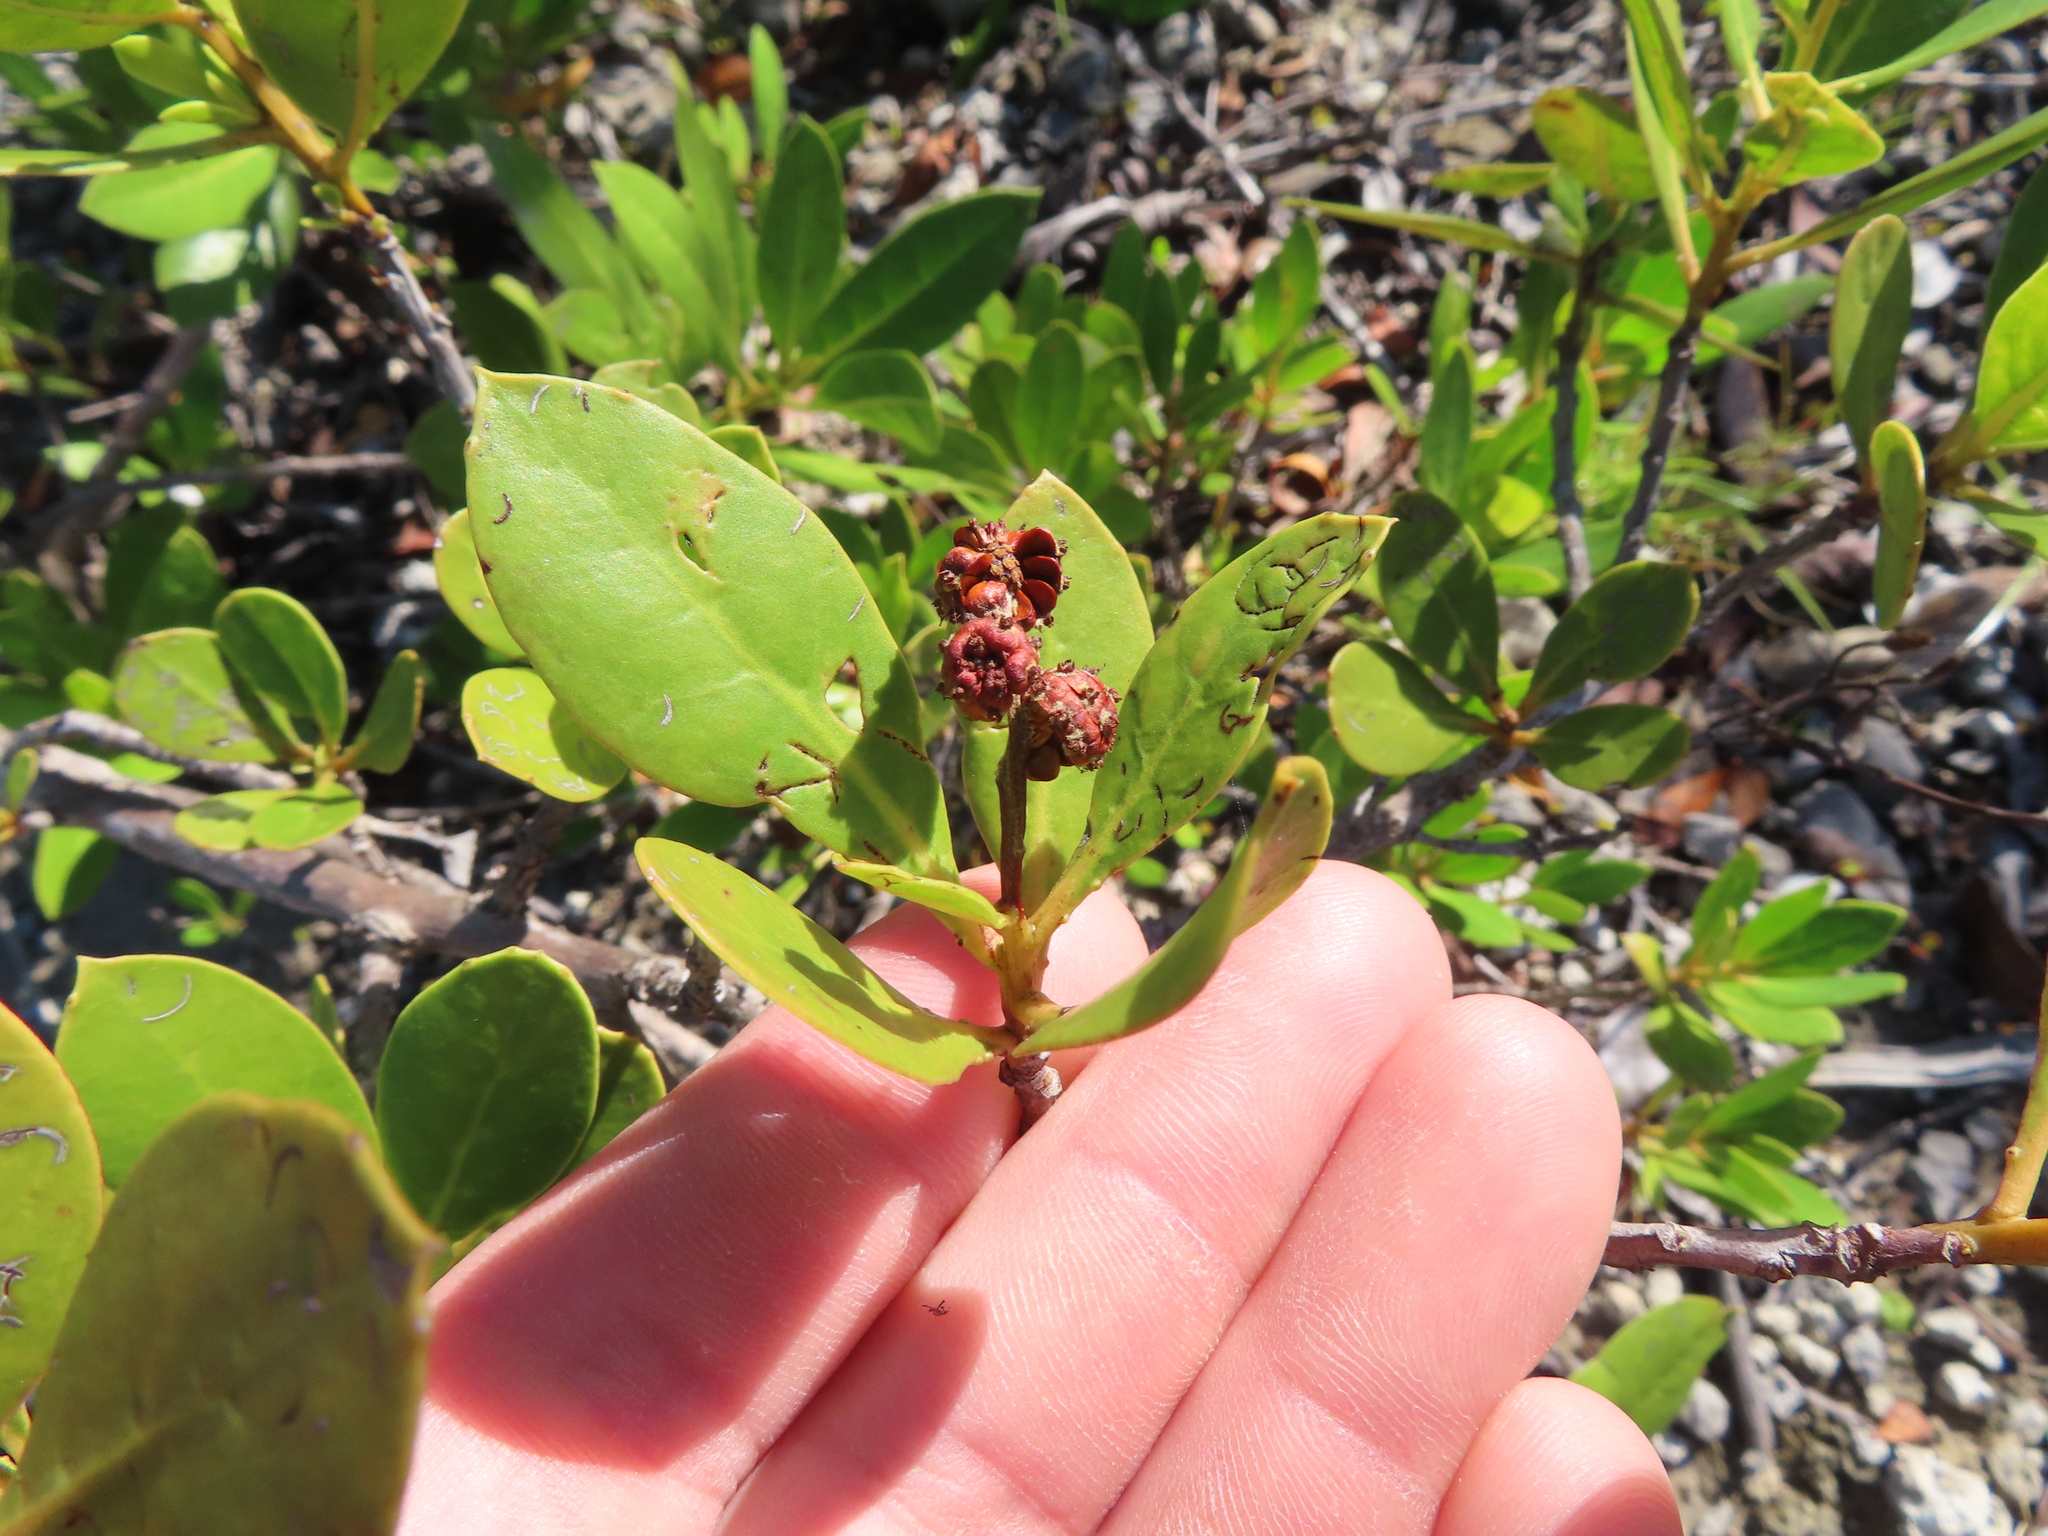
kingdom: Plantae
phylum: Tracheophyta
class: Magnoliopsida
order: Myrtales
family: Combretaceae
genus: Conocarpus
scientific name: Conocarpus erectus
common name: Button mangrove
